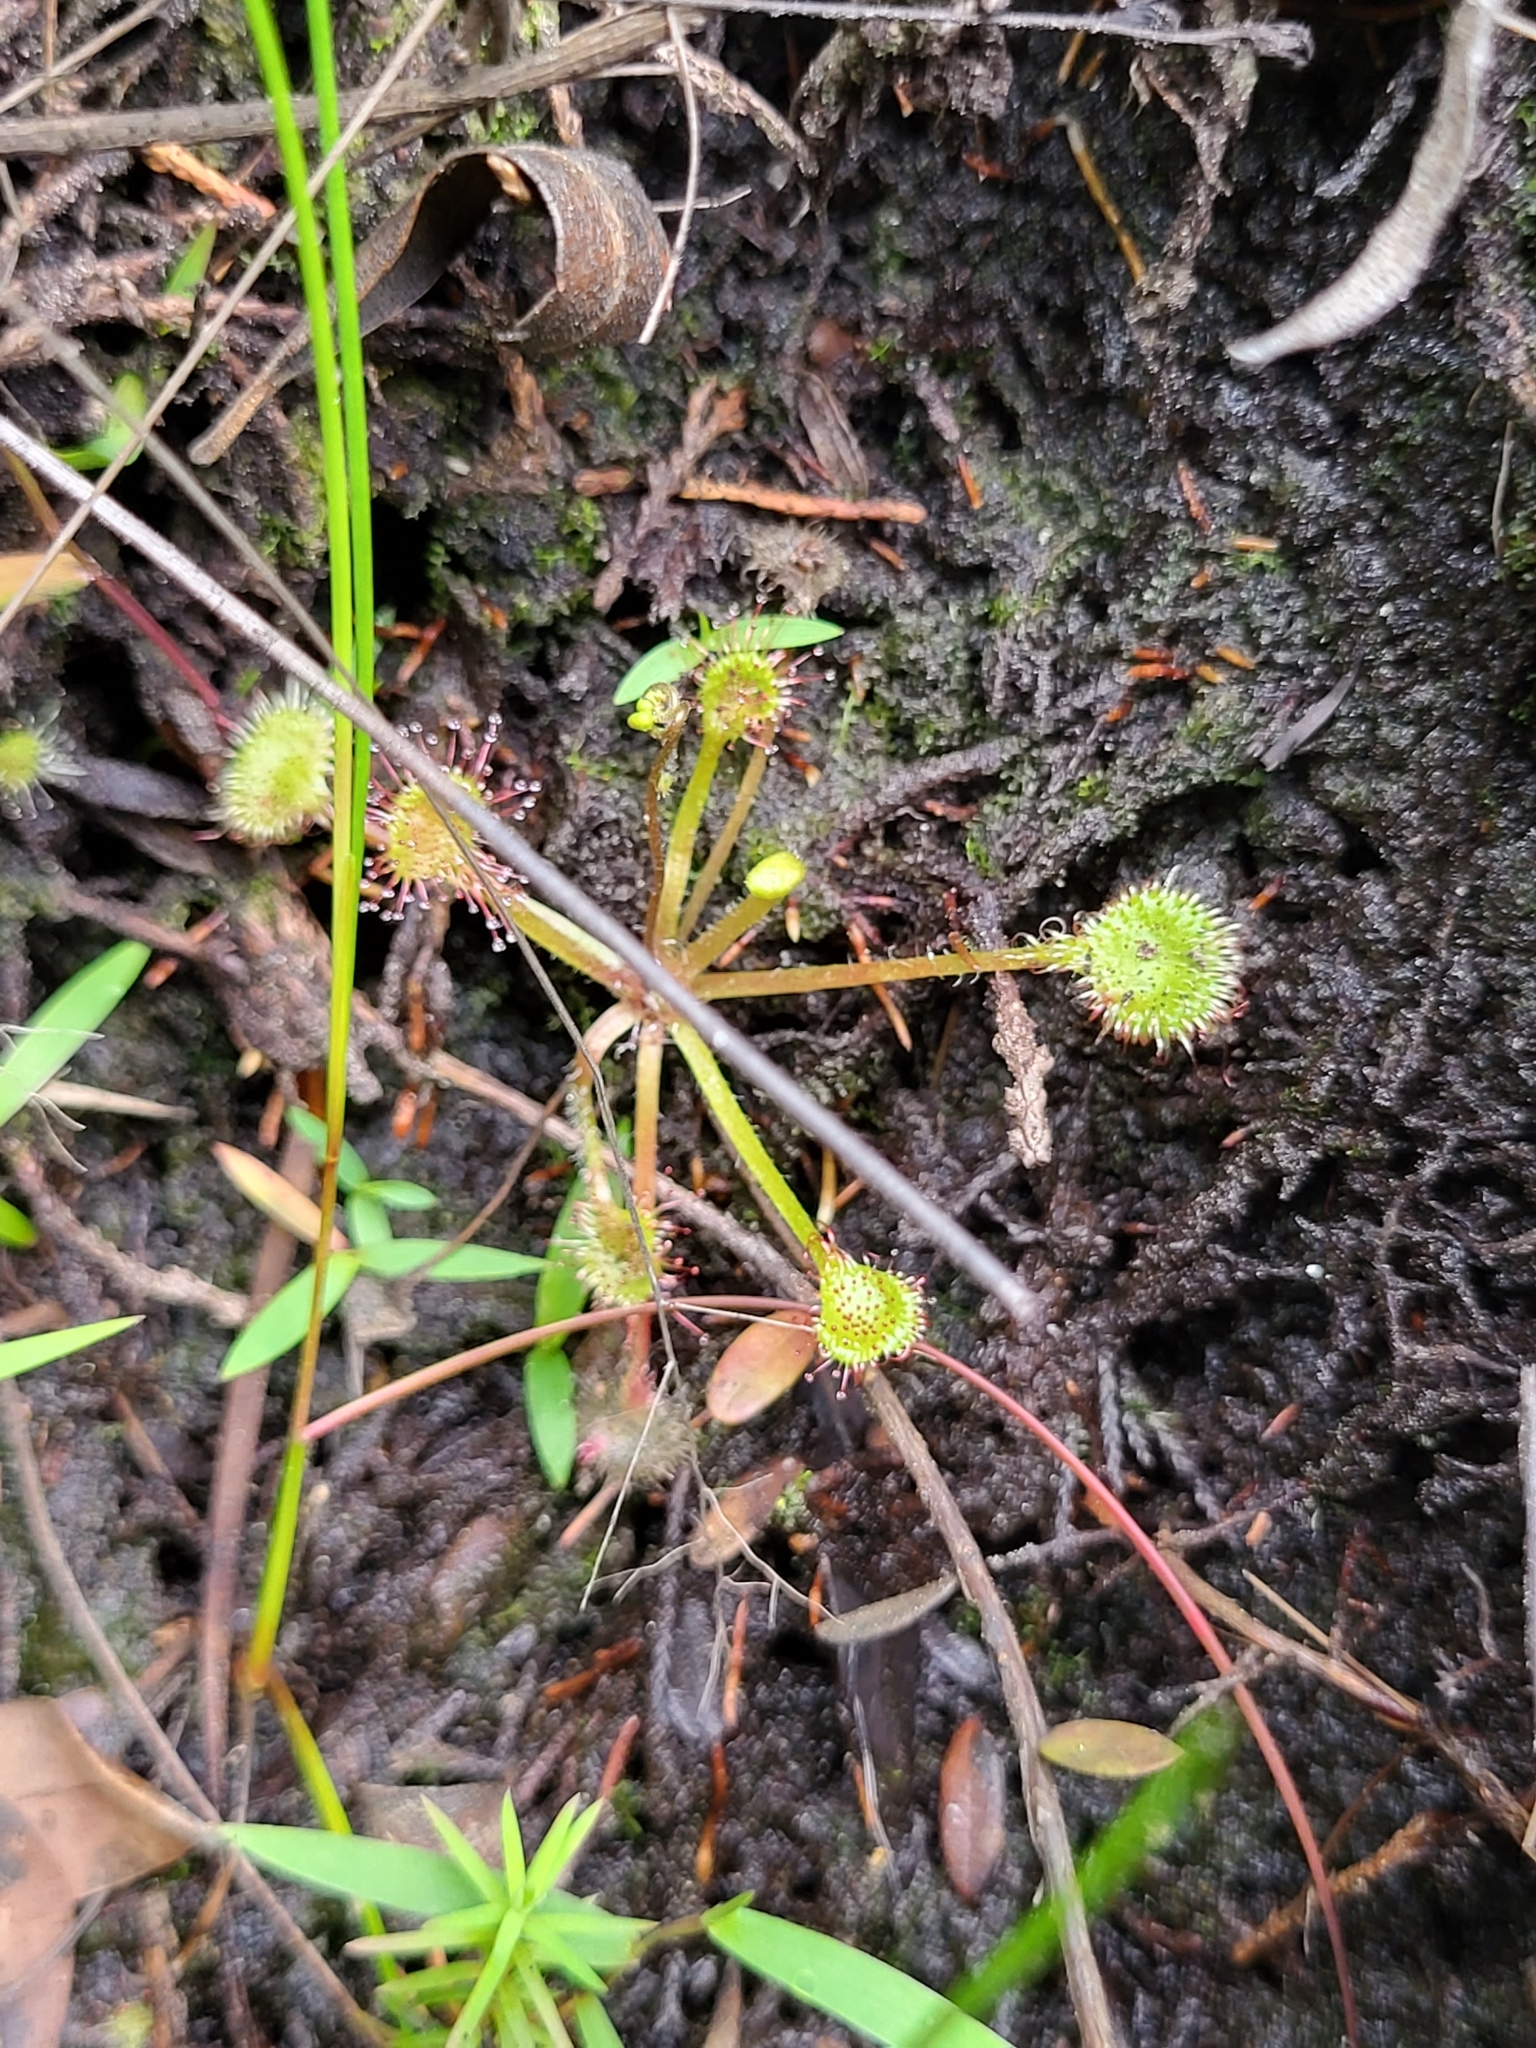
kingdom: Plantae
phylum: Tracheophyta
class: Magnoliopsida
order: Caryophyllales
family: Droseraceae
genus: Drosera
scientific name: Drosera rotundifolia
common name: Round-leaved sundew
